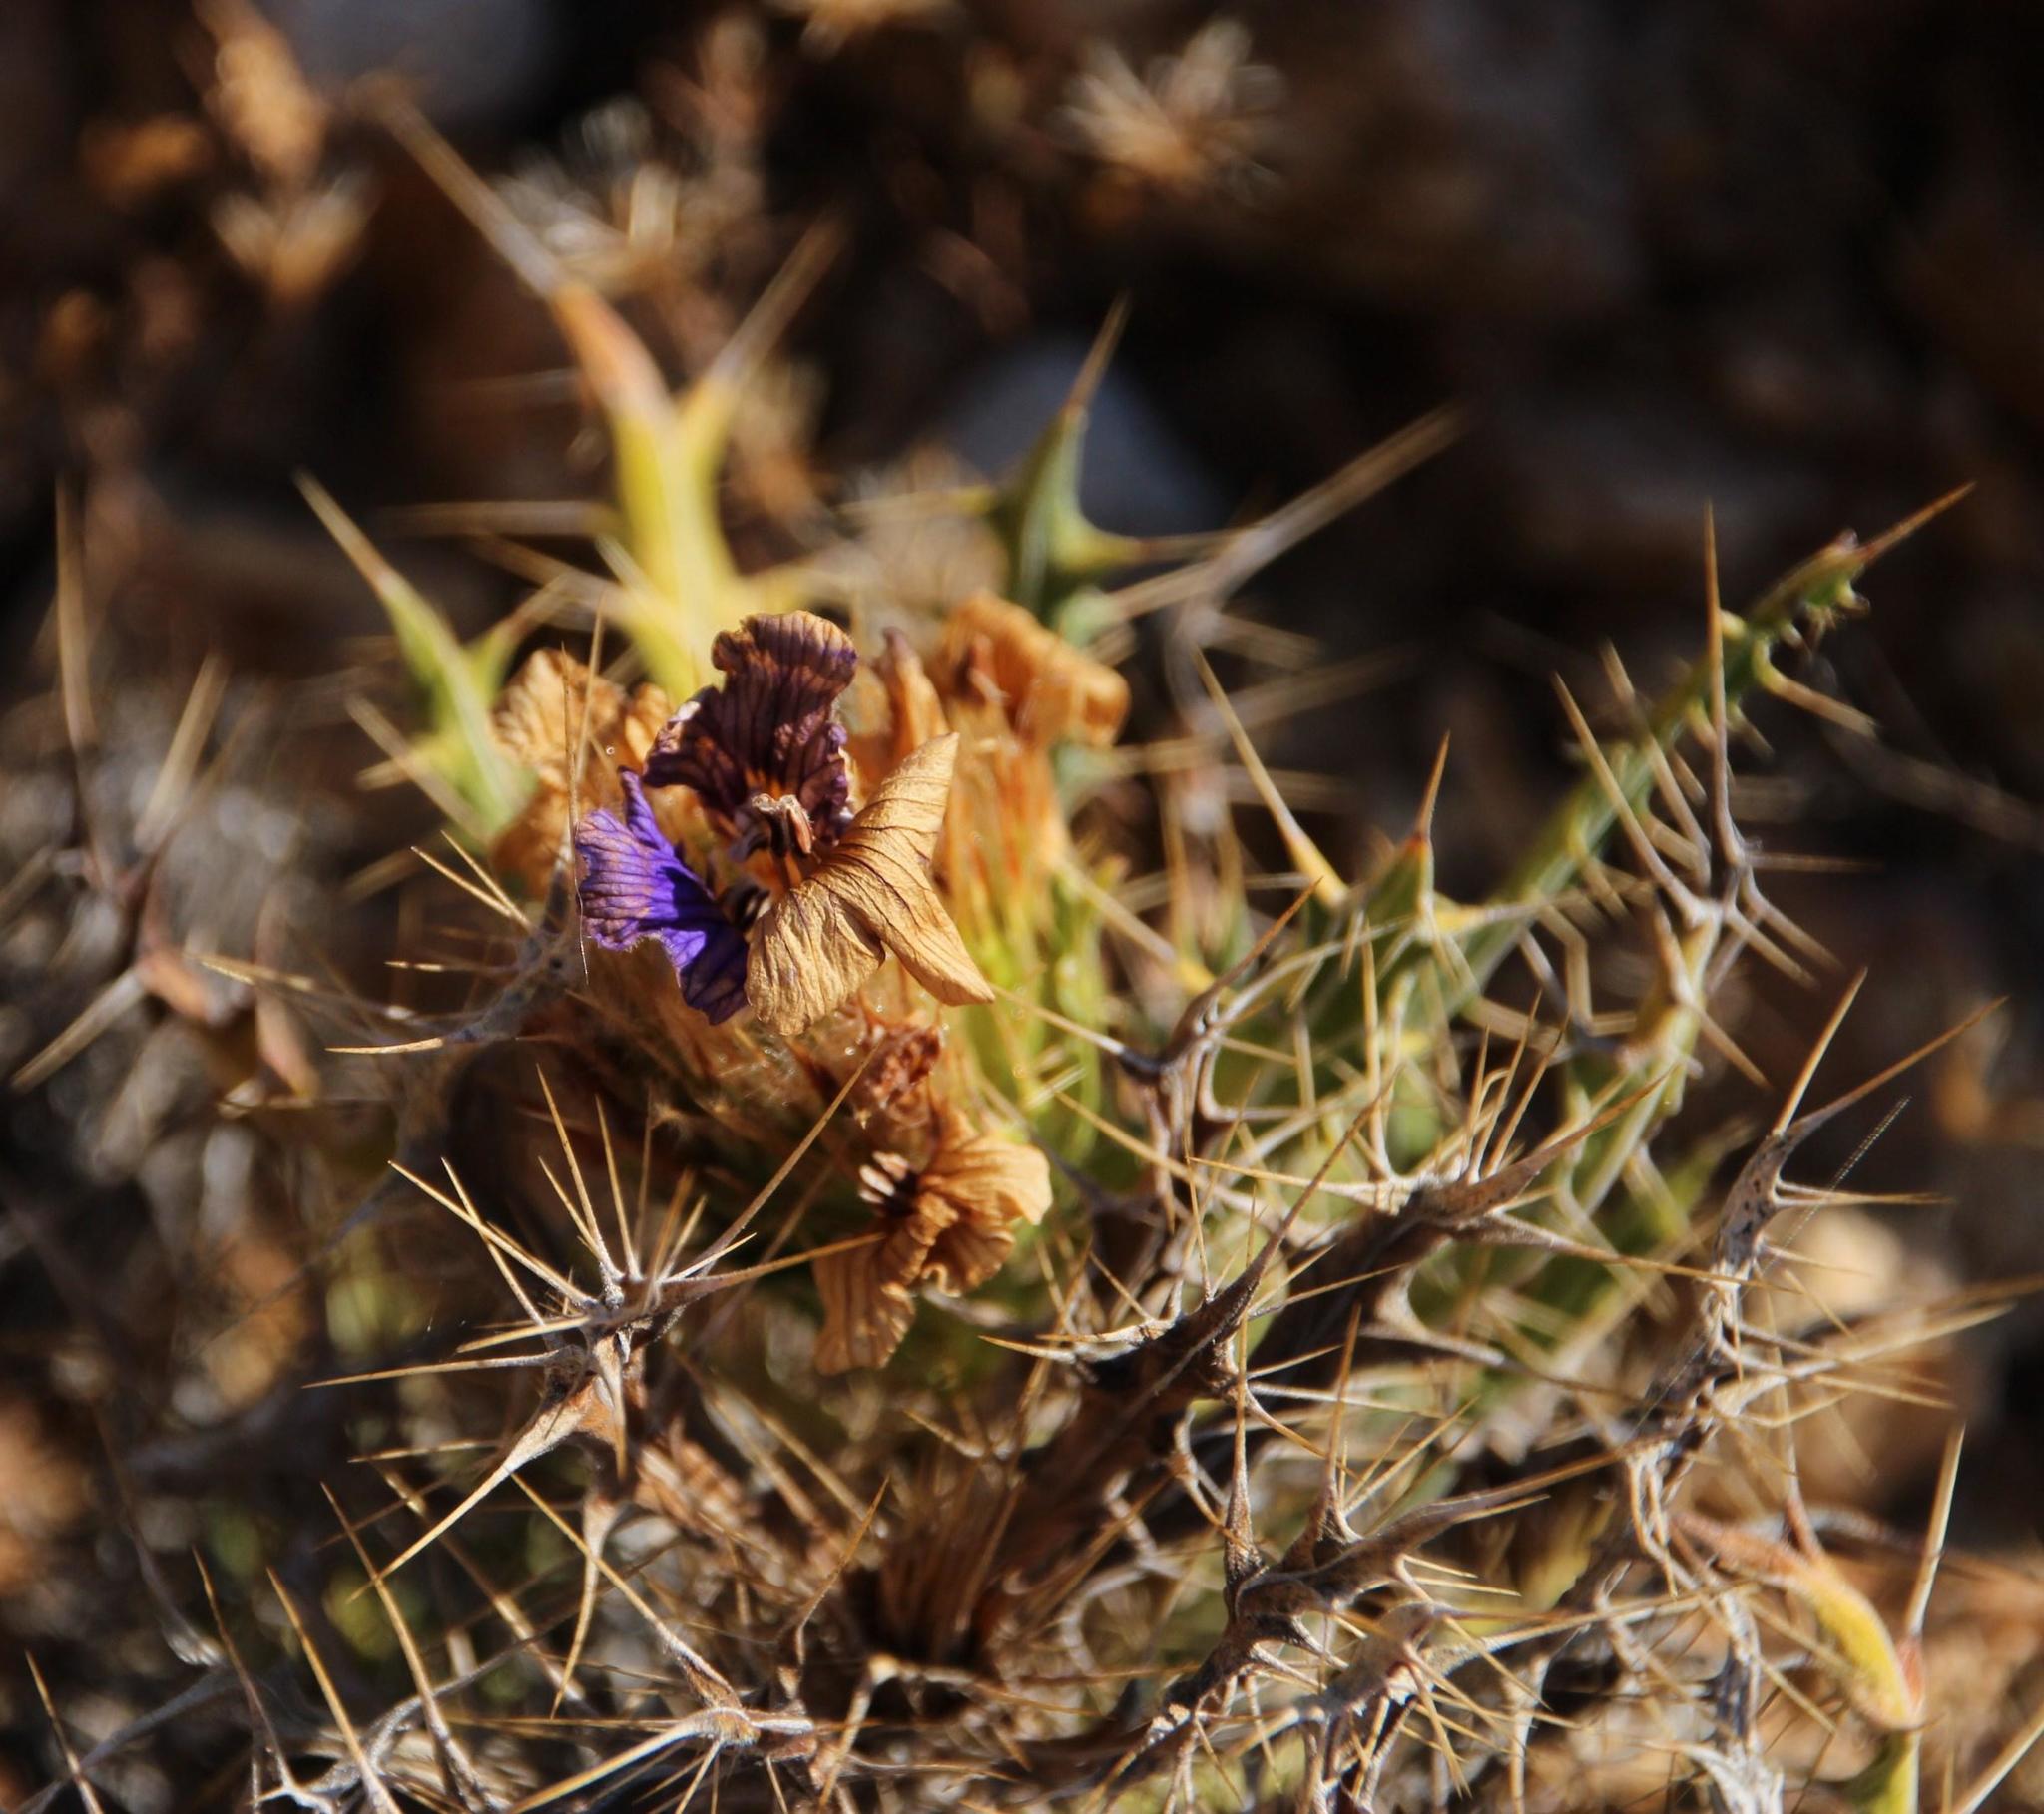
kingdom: Plantae
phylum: Tracheophyta
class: Magnoliopsida
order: Lamiales
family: Acanthaceae
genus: Acanthopsis
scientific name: Acanthopsis horrida
